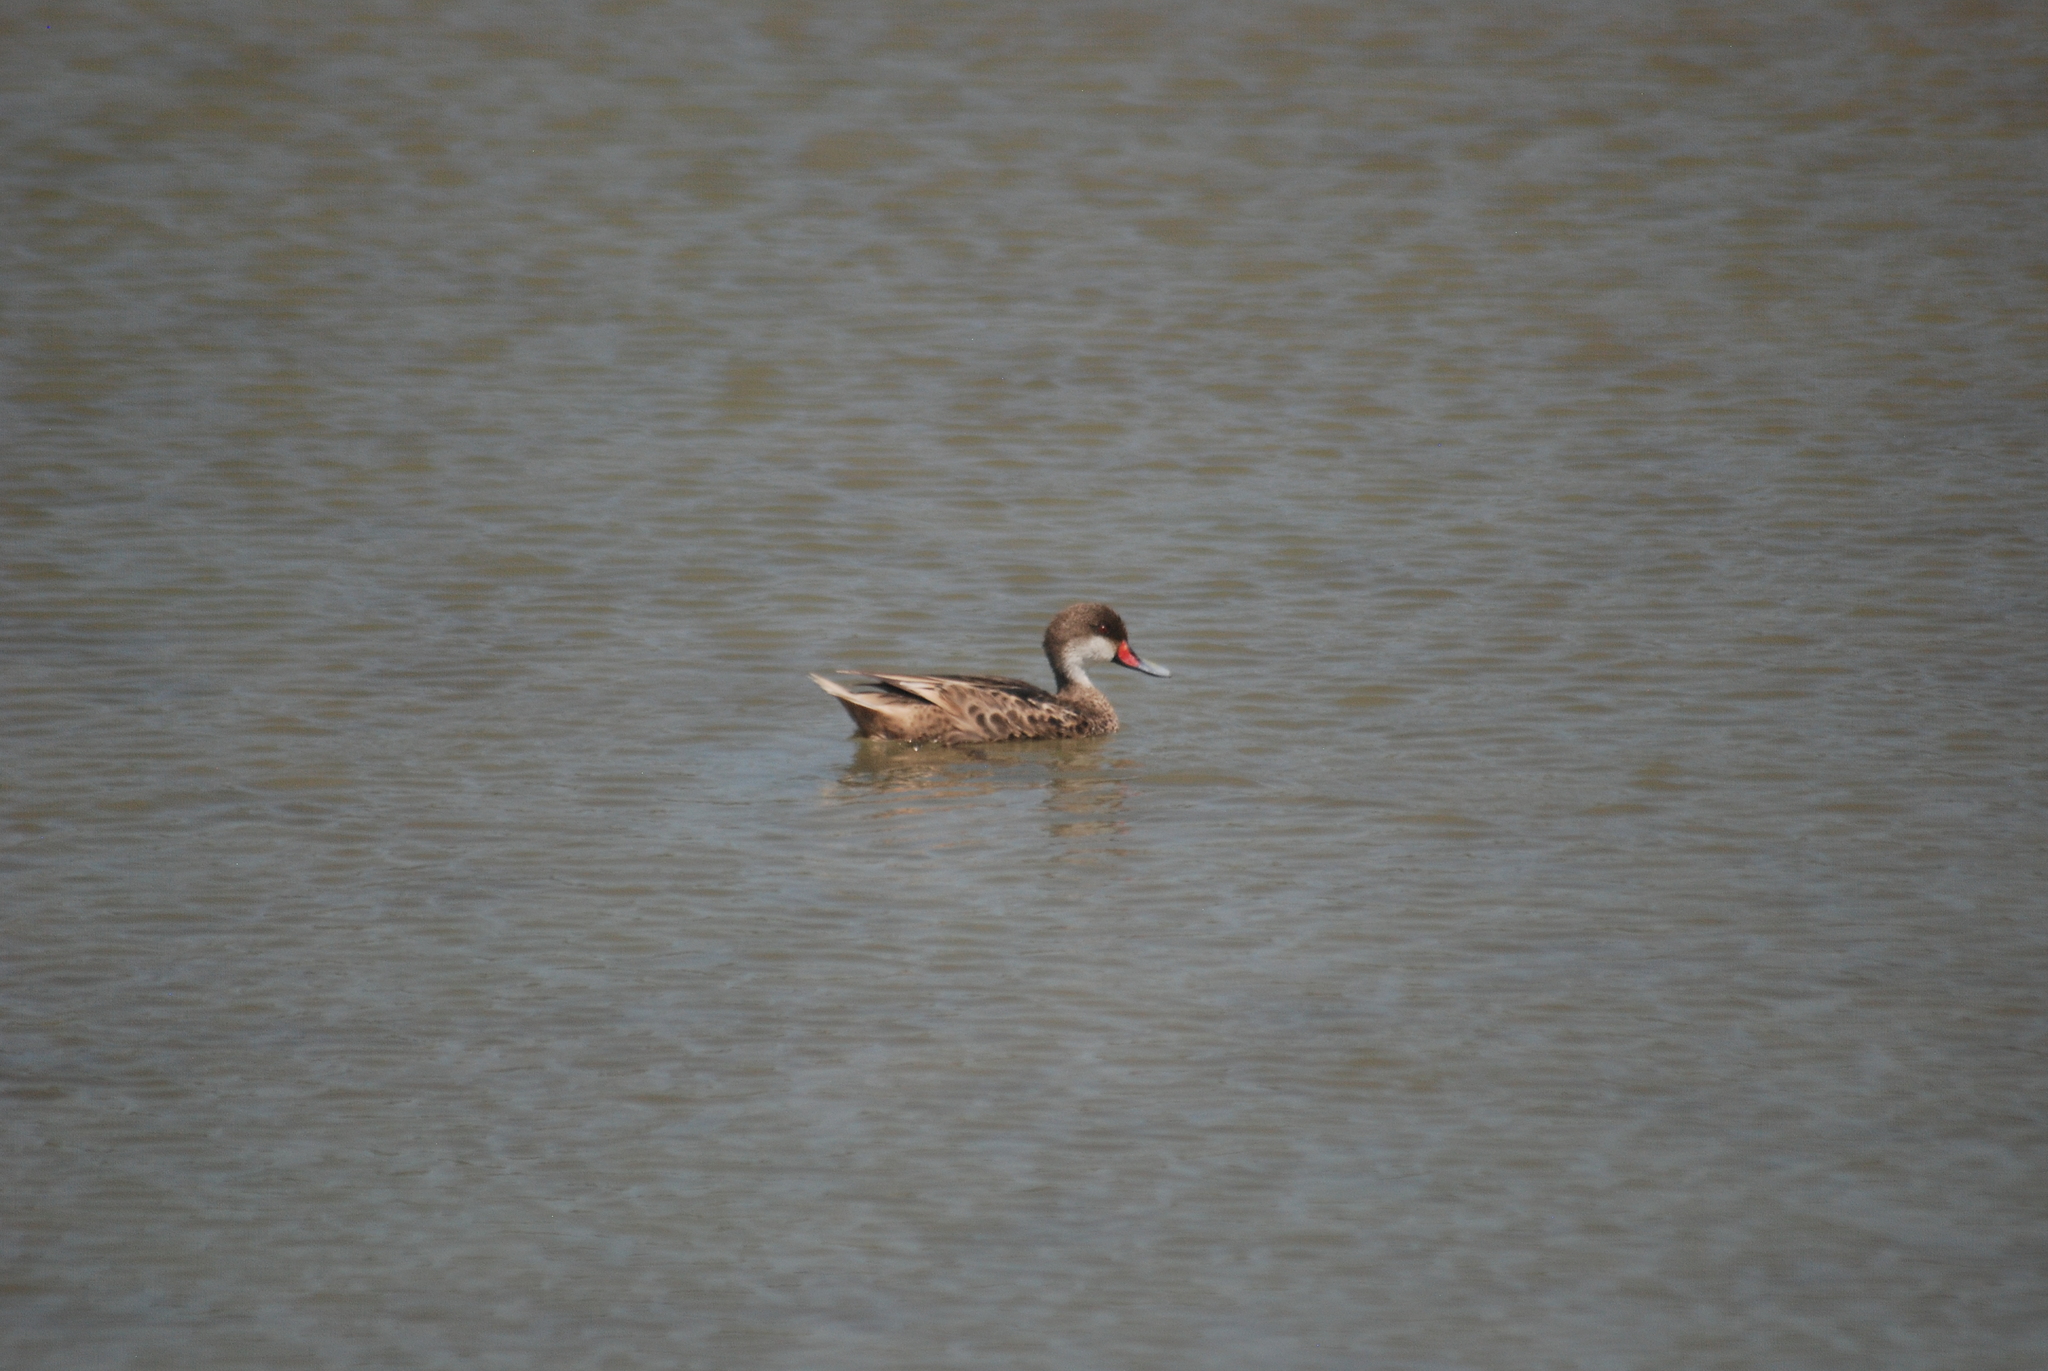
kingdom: Animalia
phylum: Chordata
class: Aves
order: Anseriformes
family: Anatidae
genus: Anas
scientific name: Anas bahamensis
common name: White-cheeked pintail
